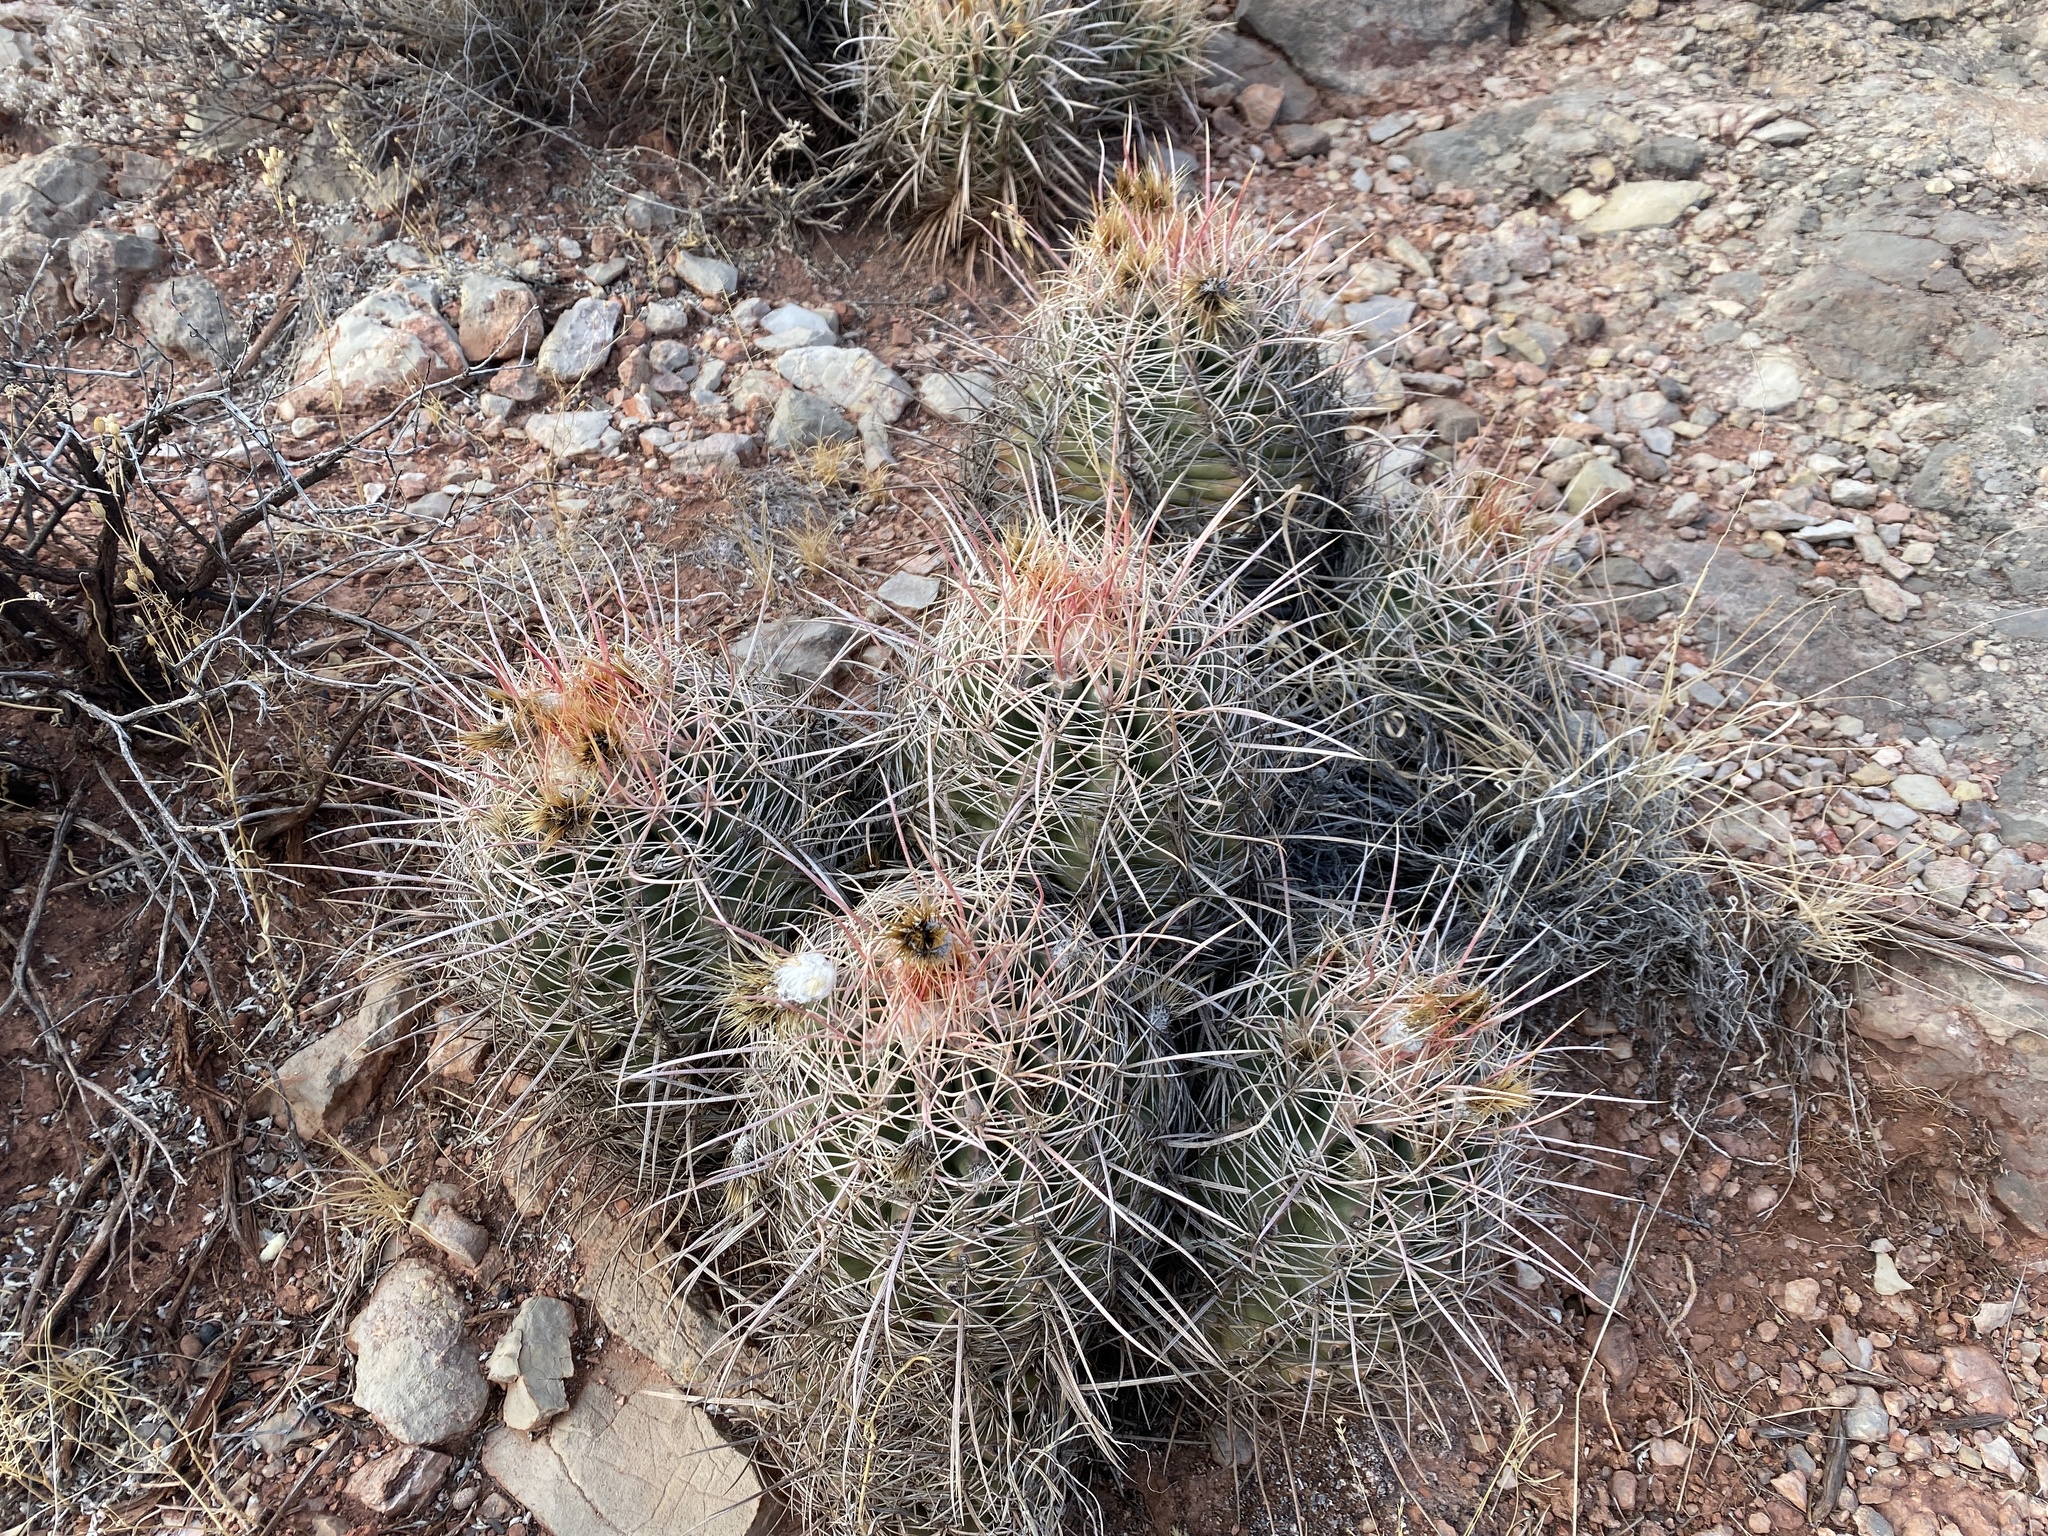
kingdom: Plantae
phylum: Tracheophyta
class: Magnoliopsida
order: Caryophyllales
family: Cactaceae
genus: Echinocactus
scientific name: Echinocactus polycephalus
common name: Cottontop cactus
